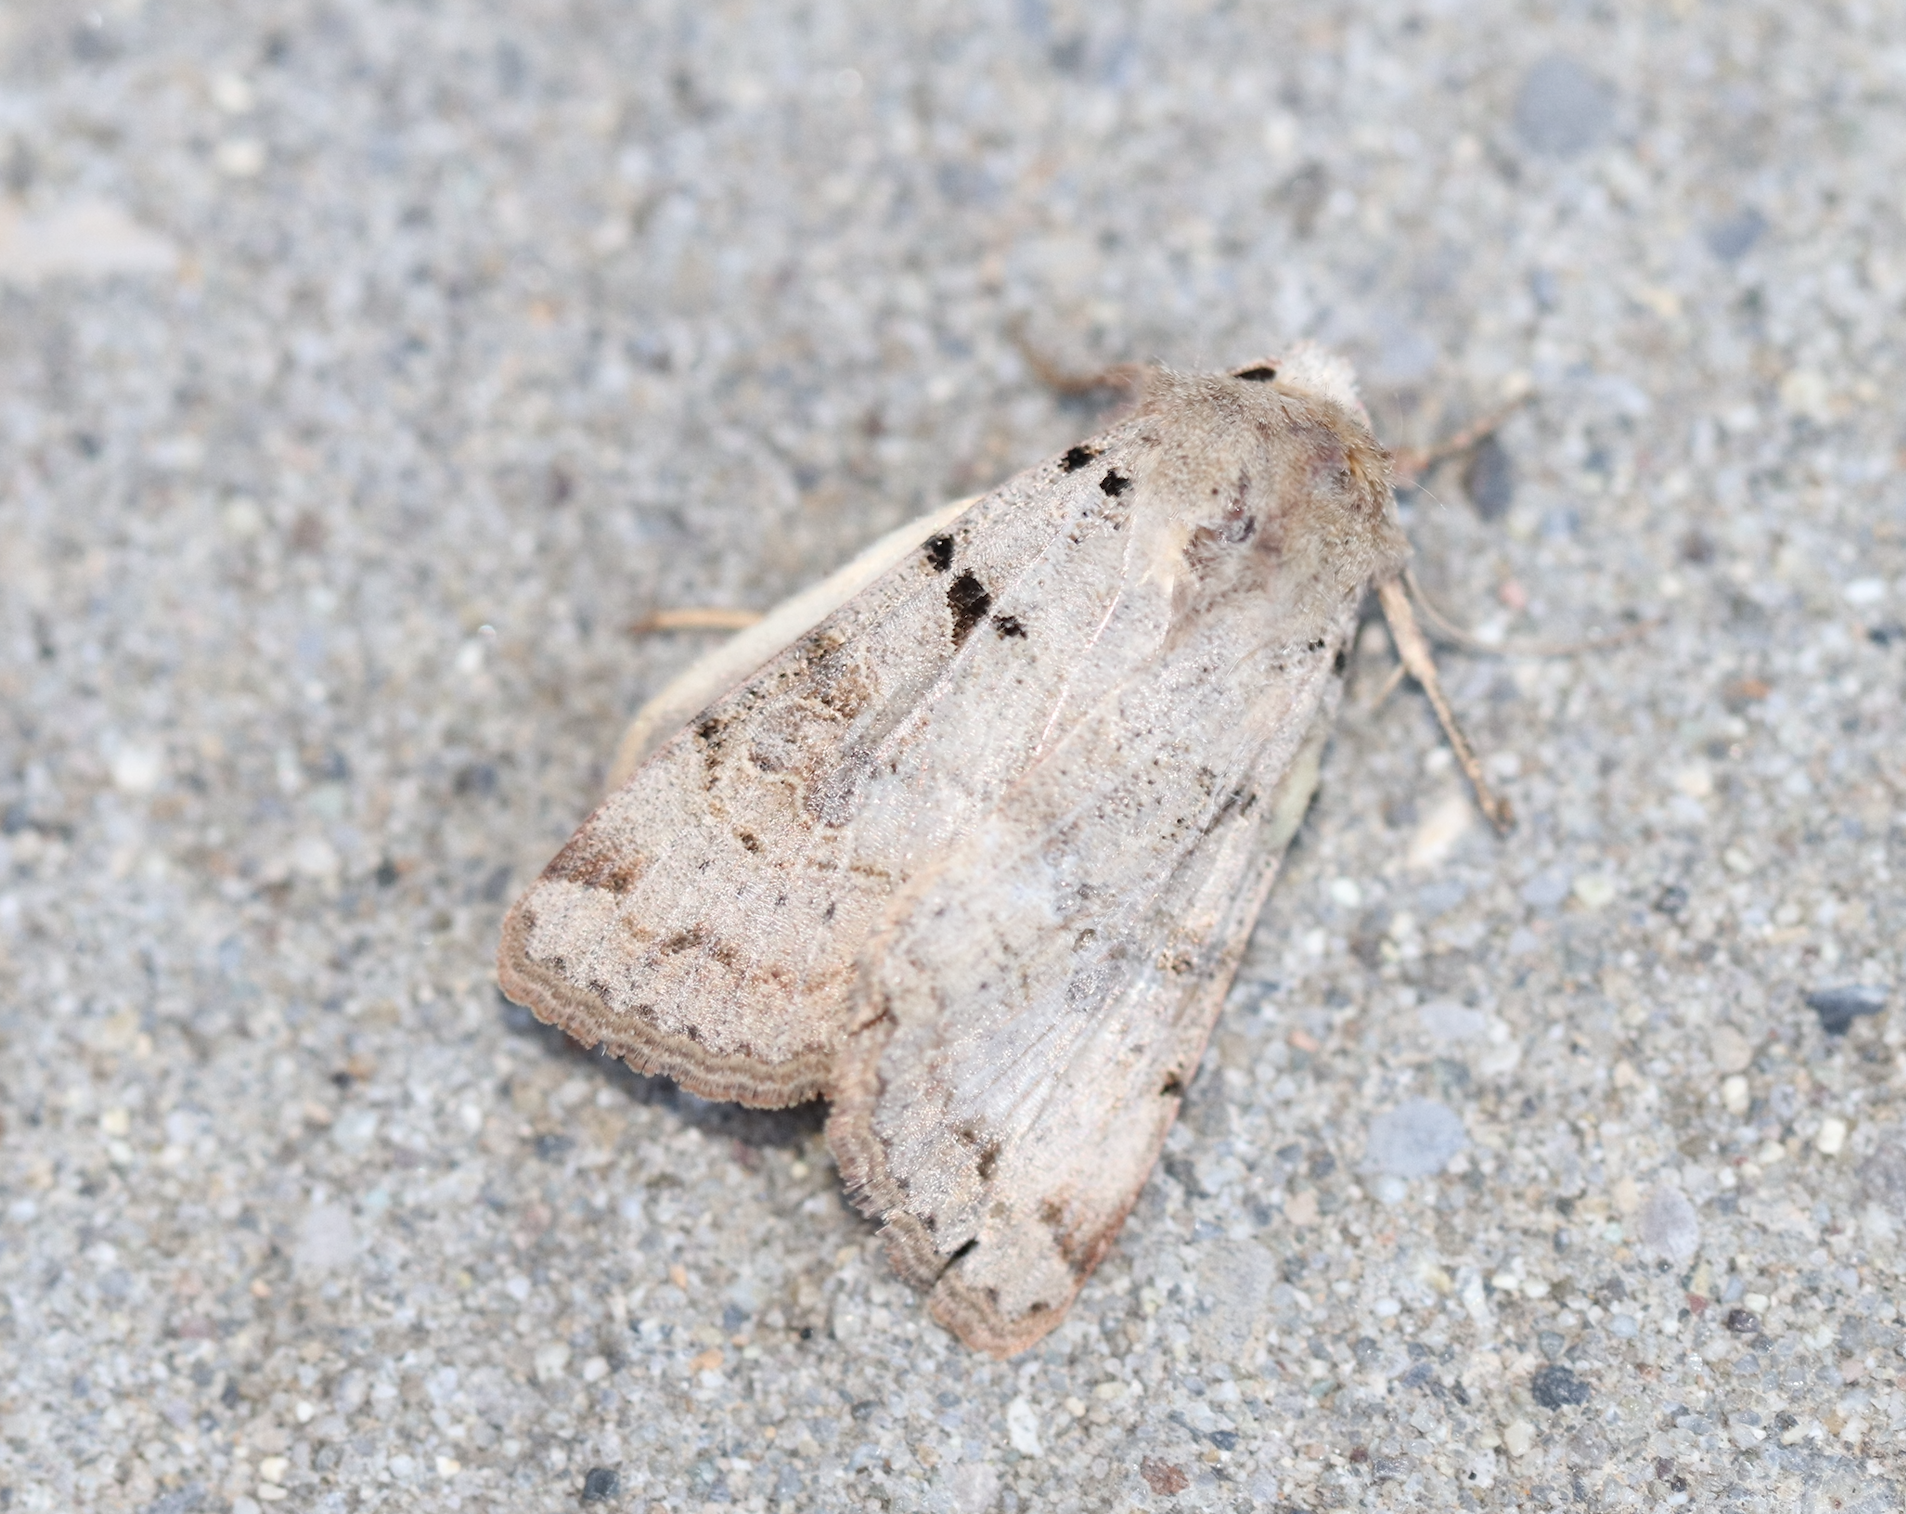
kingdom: Animalia
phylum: Arthropoda
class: Insecta
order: Lepidoptera
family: Noctuidae
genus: Eugnorisma
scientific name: Eugnorisma depuncta
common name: Plain clay
